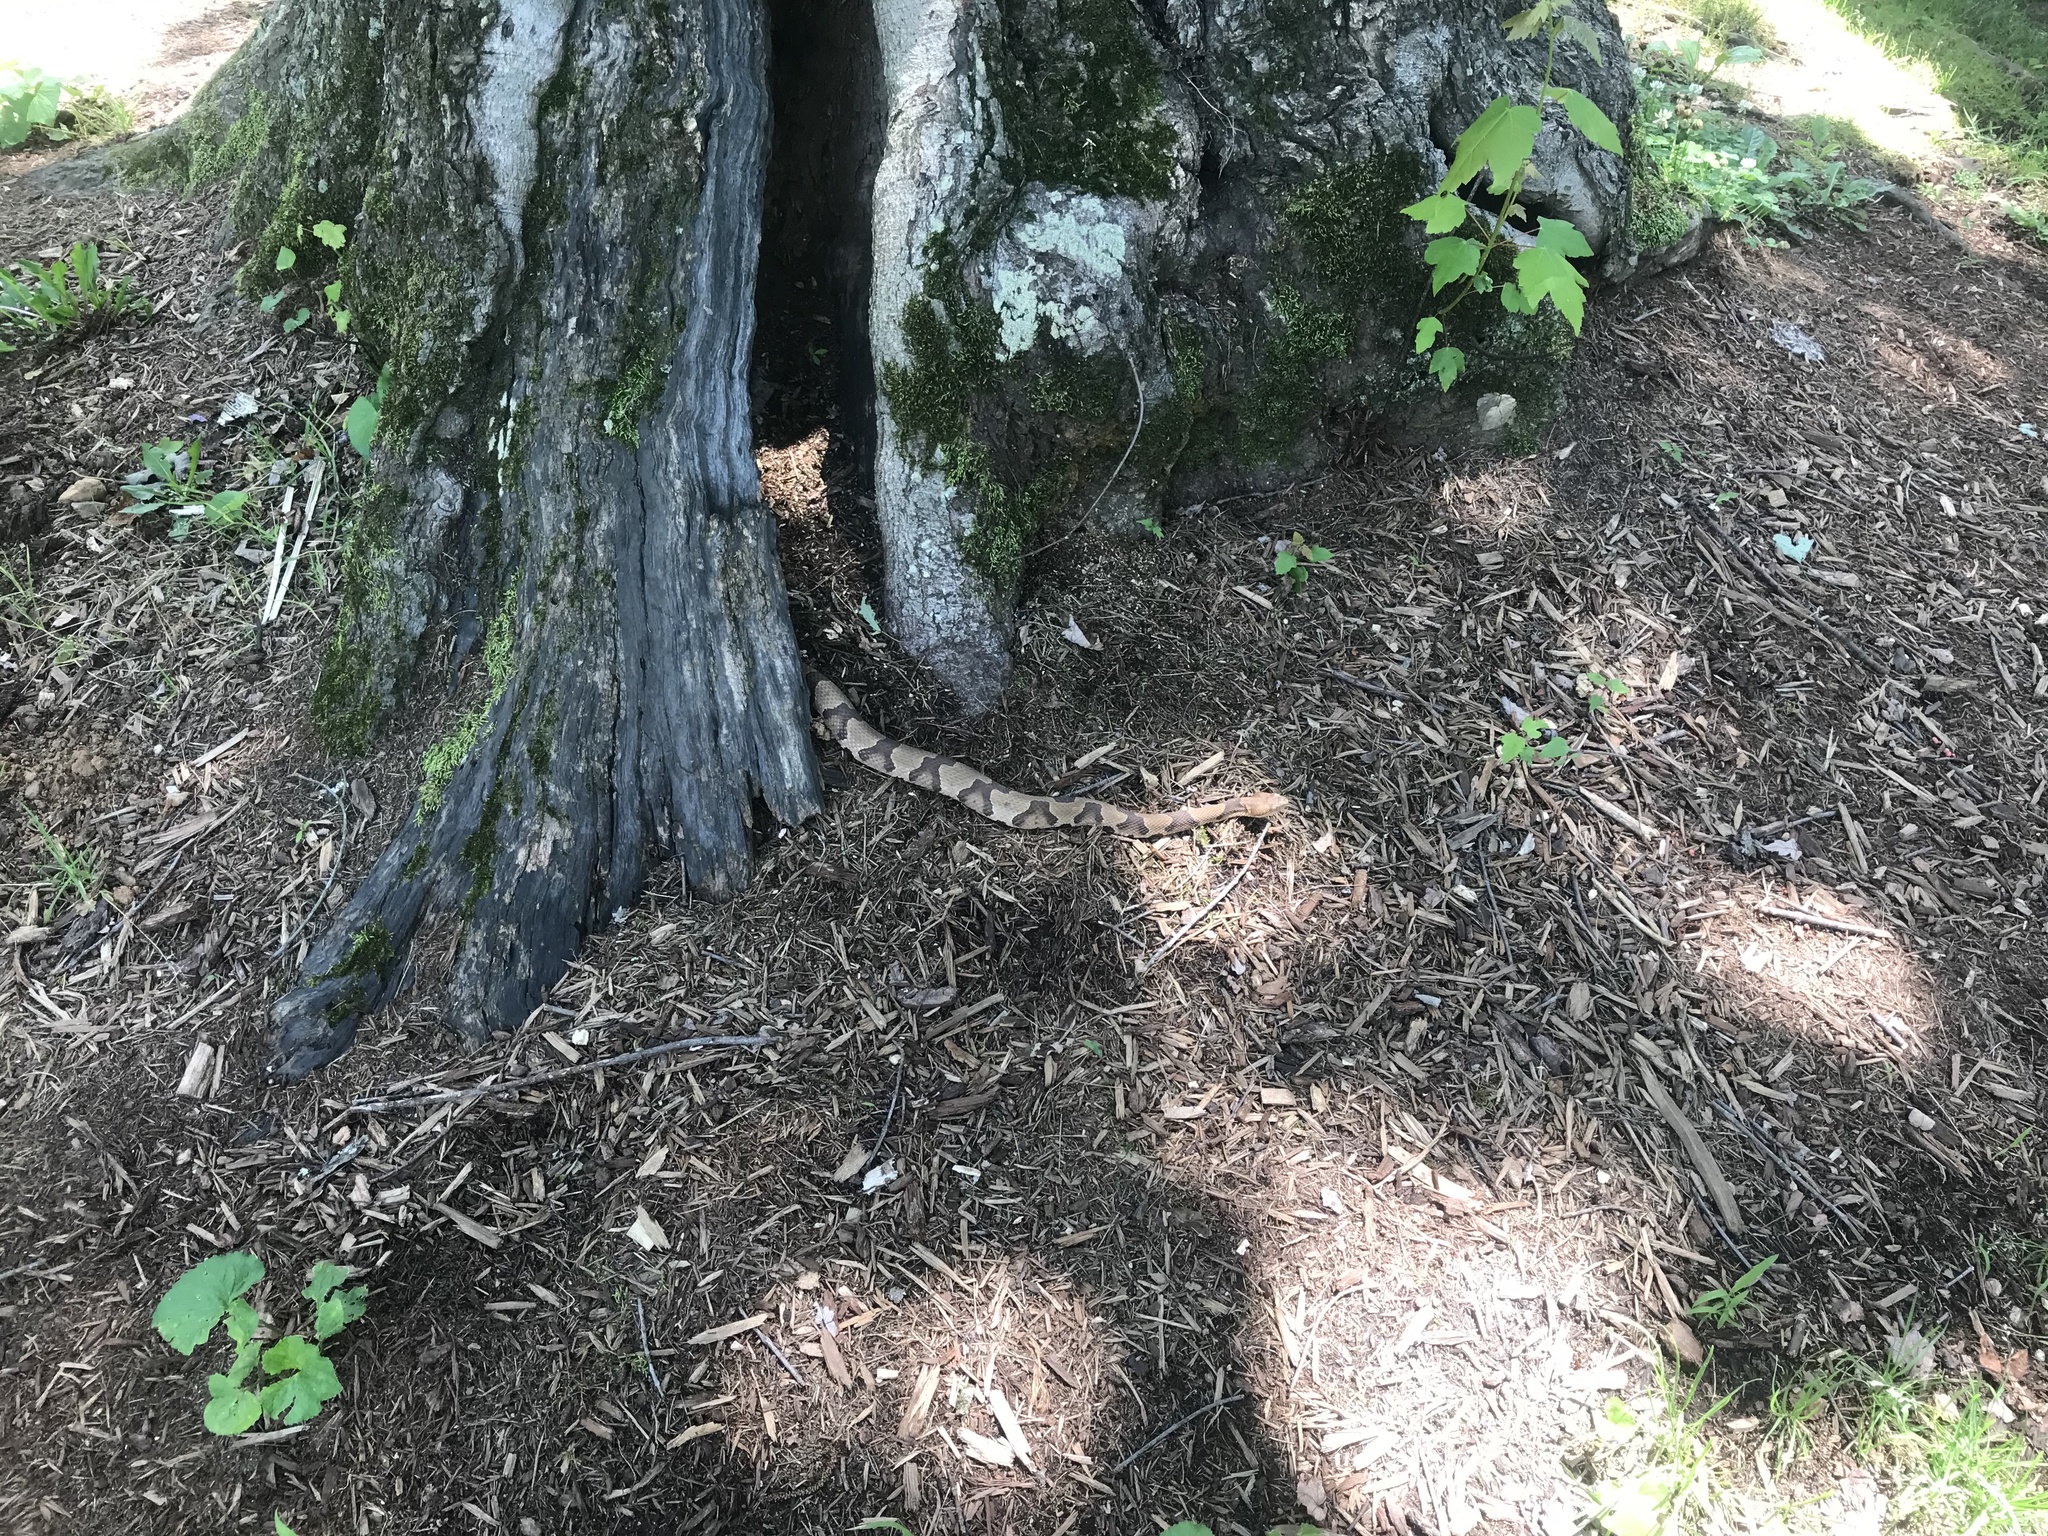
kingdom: Animalia
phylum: Chordata
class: Squamata
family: Viperidae
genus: Agkistrodon
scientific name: Agkistrodon contortrix
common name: Northern copperhead
